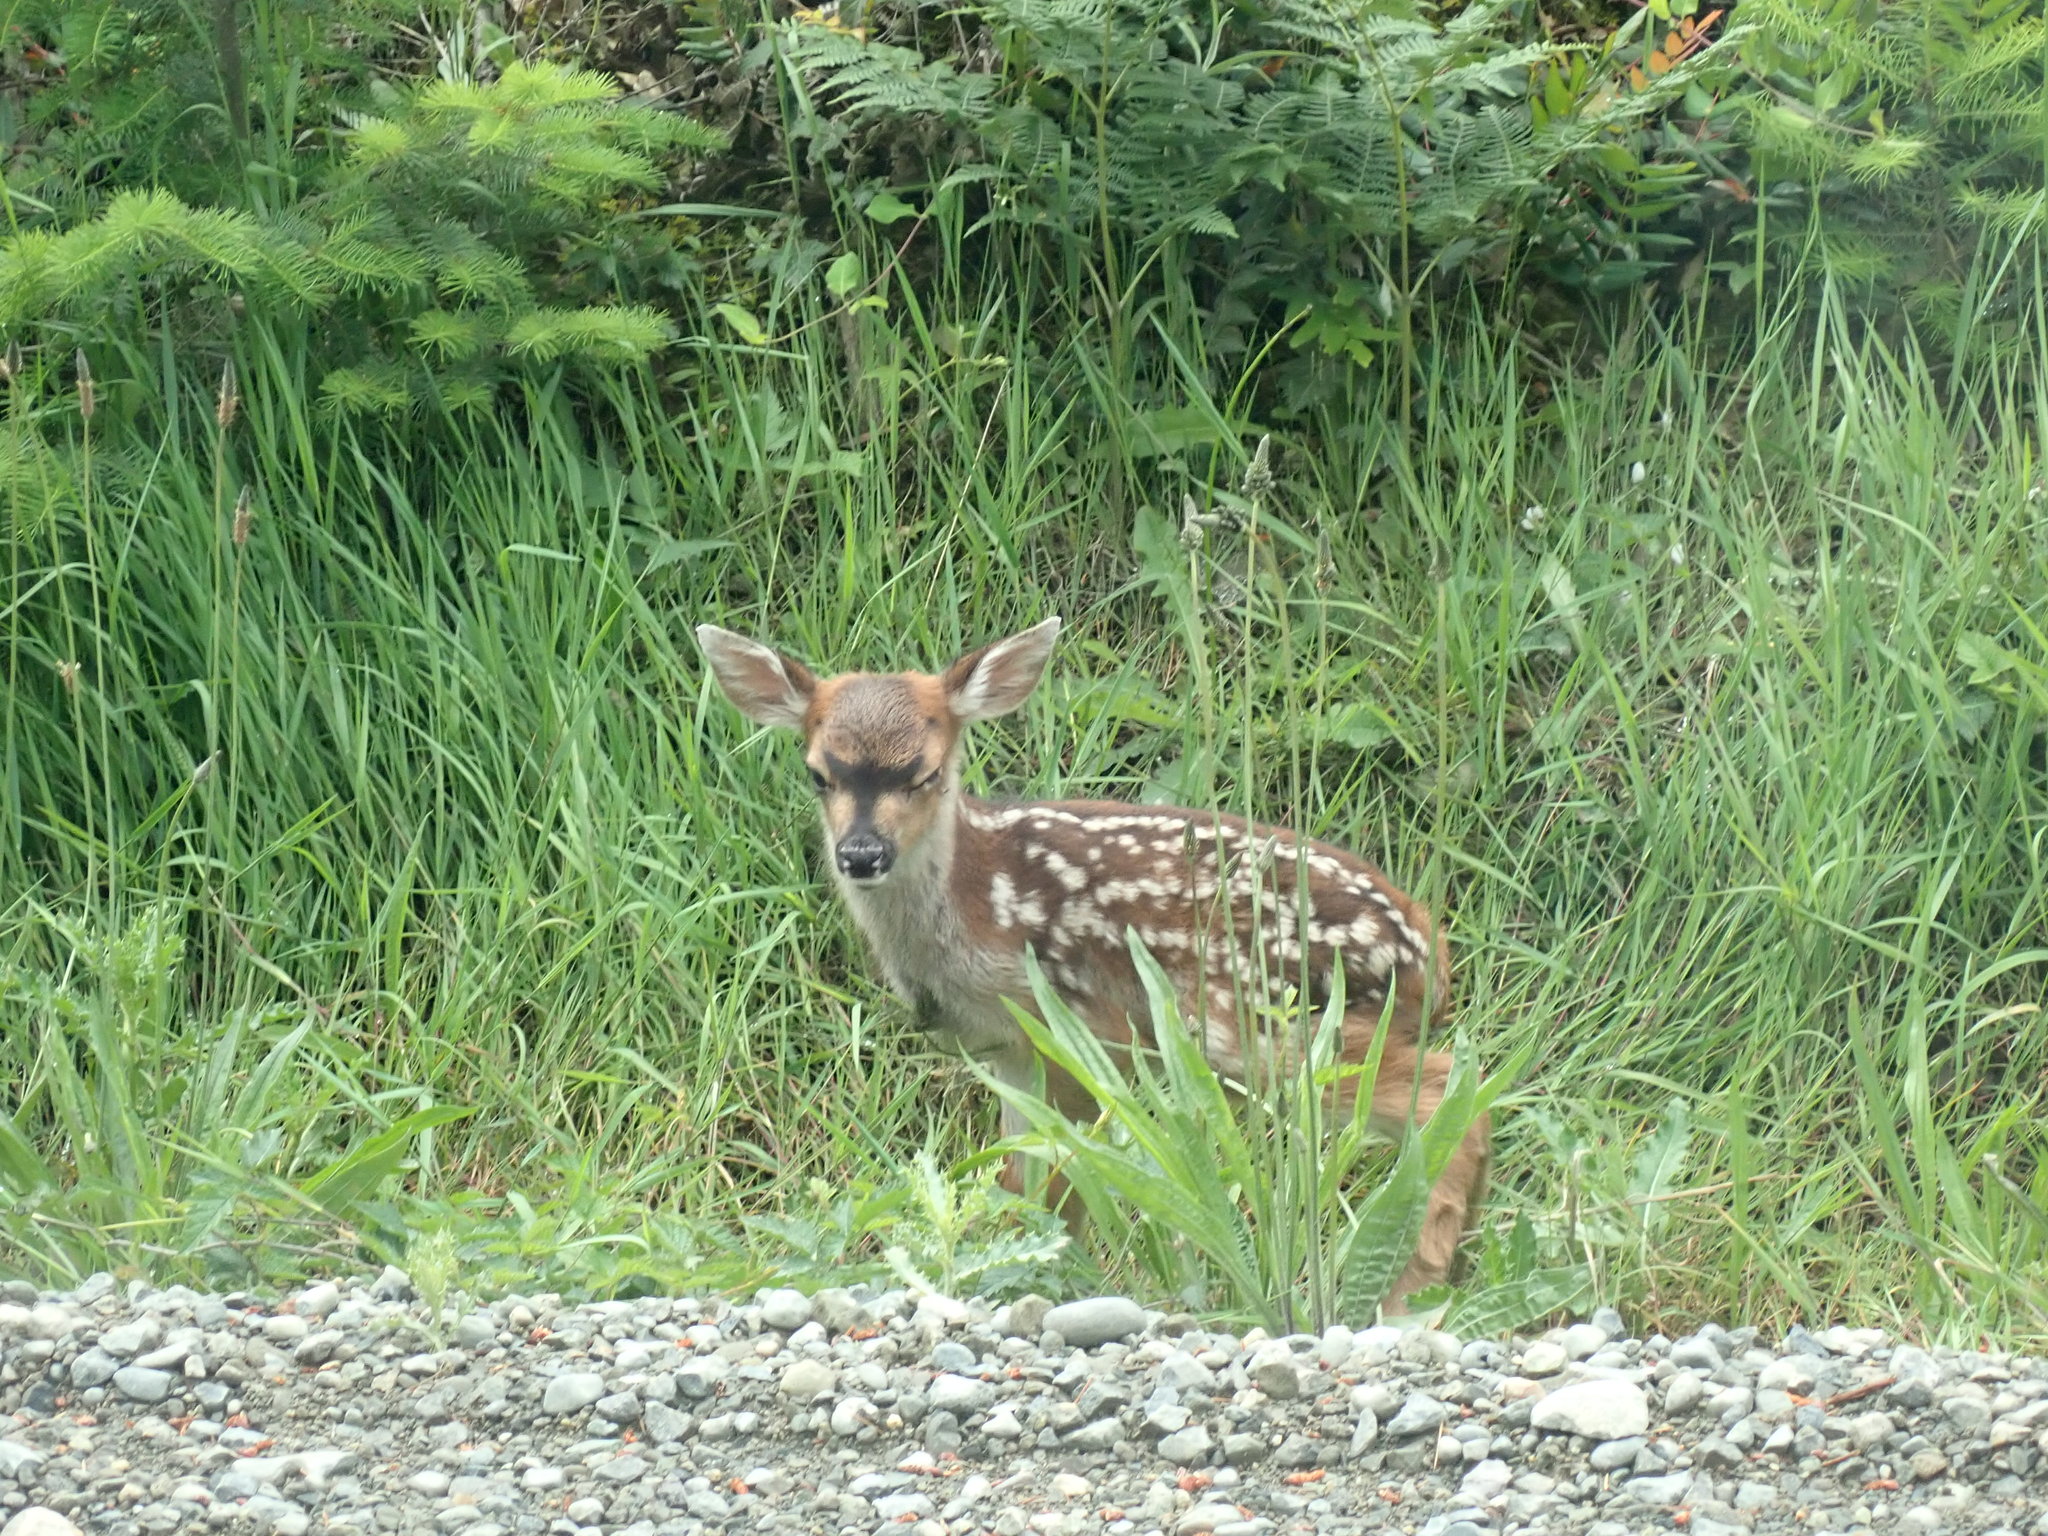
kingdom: Animalia
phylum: Chordata
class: Mammalia
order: Artiodactyla
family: Cervidae
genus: Odocoileus
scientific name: Odocoileus hemionus
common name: Mule deer
